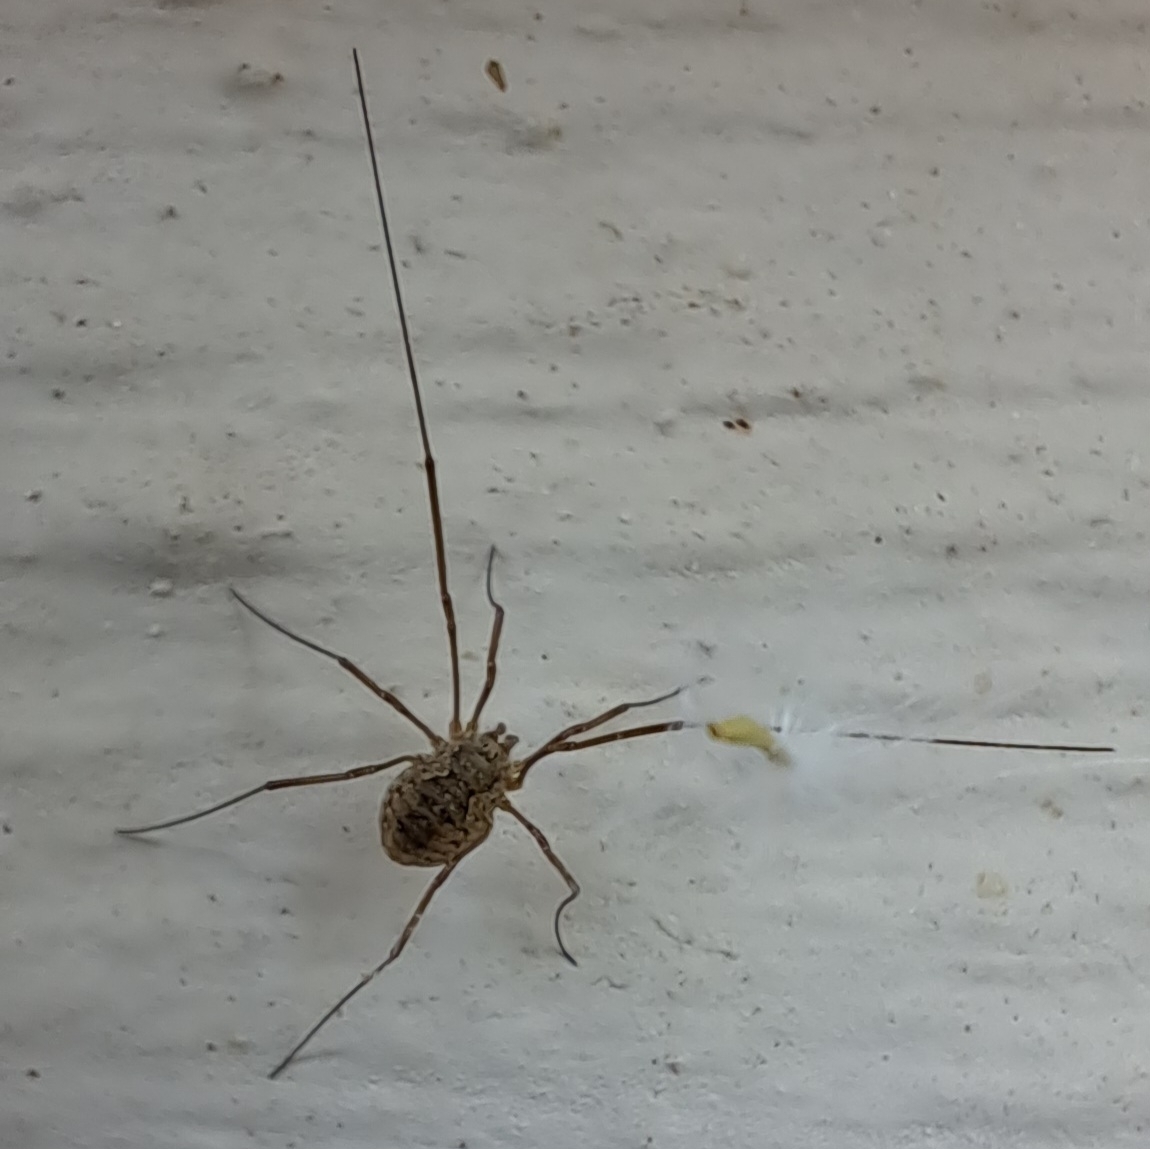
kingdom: Animalia
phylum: Arthropoda
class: Arachnida
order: Opiliones
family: Phalangiidae
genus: Phalangium
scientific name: Phalangium opilio
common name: Daddy longleg
